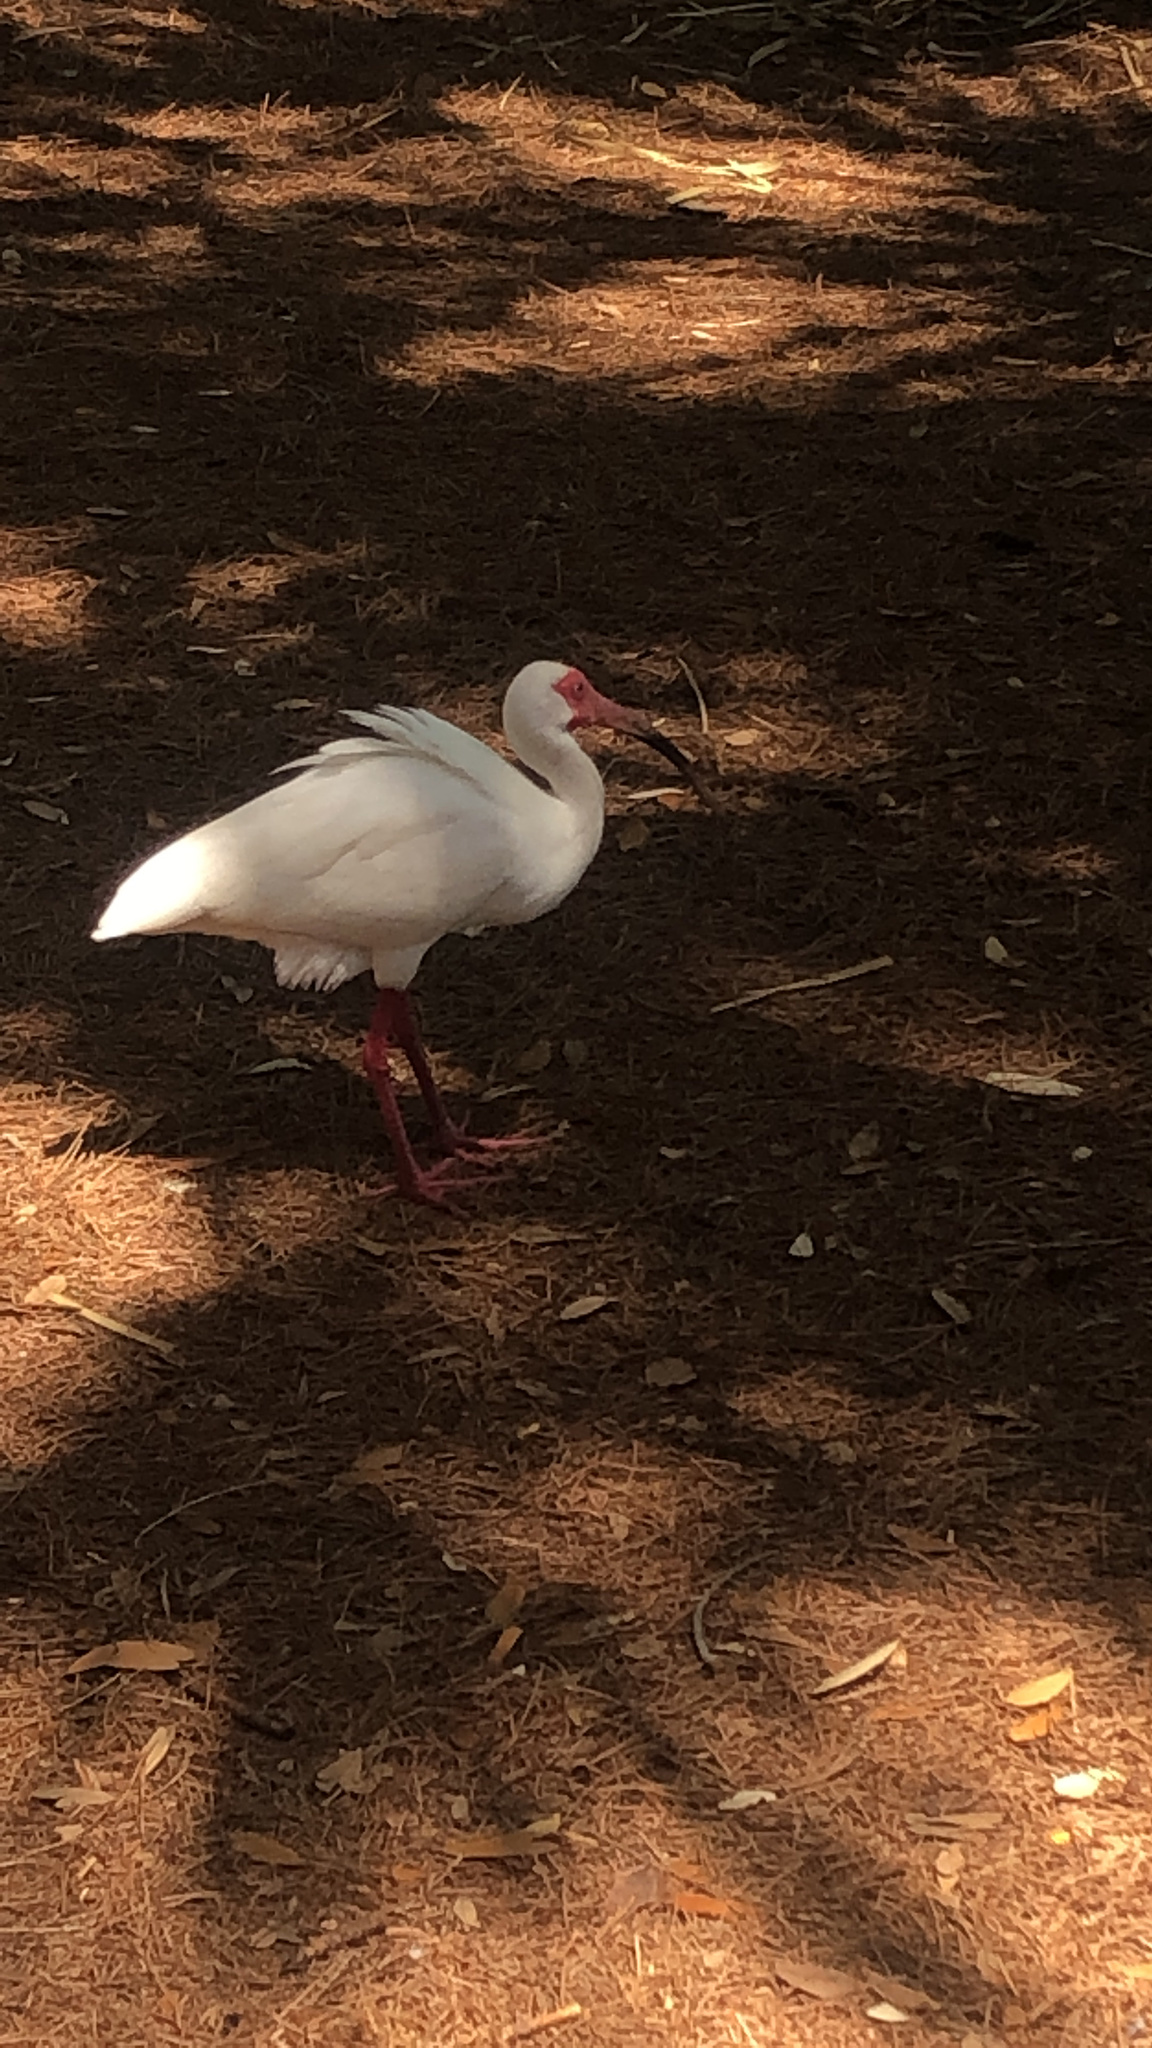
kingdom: Animalia
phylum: Chordata
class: Aves
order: Pelecaniformes
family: Threskiornithidae
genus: Eudocimus
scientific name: Eudocimus albus
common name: White ibis
